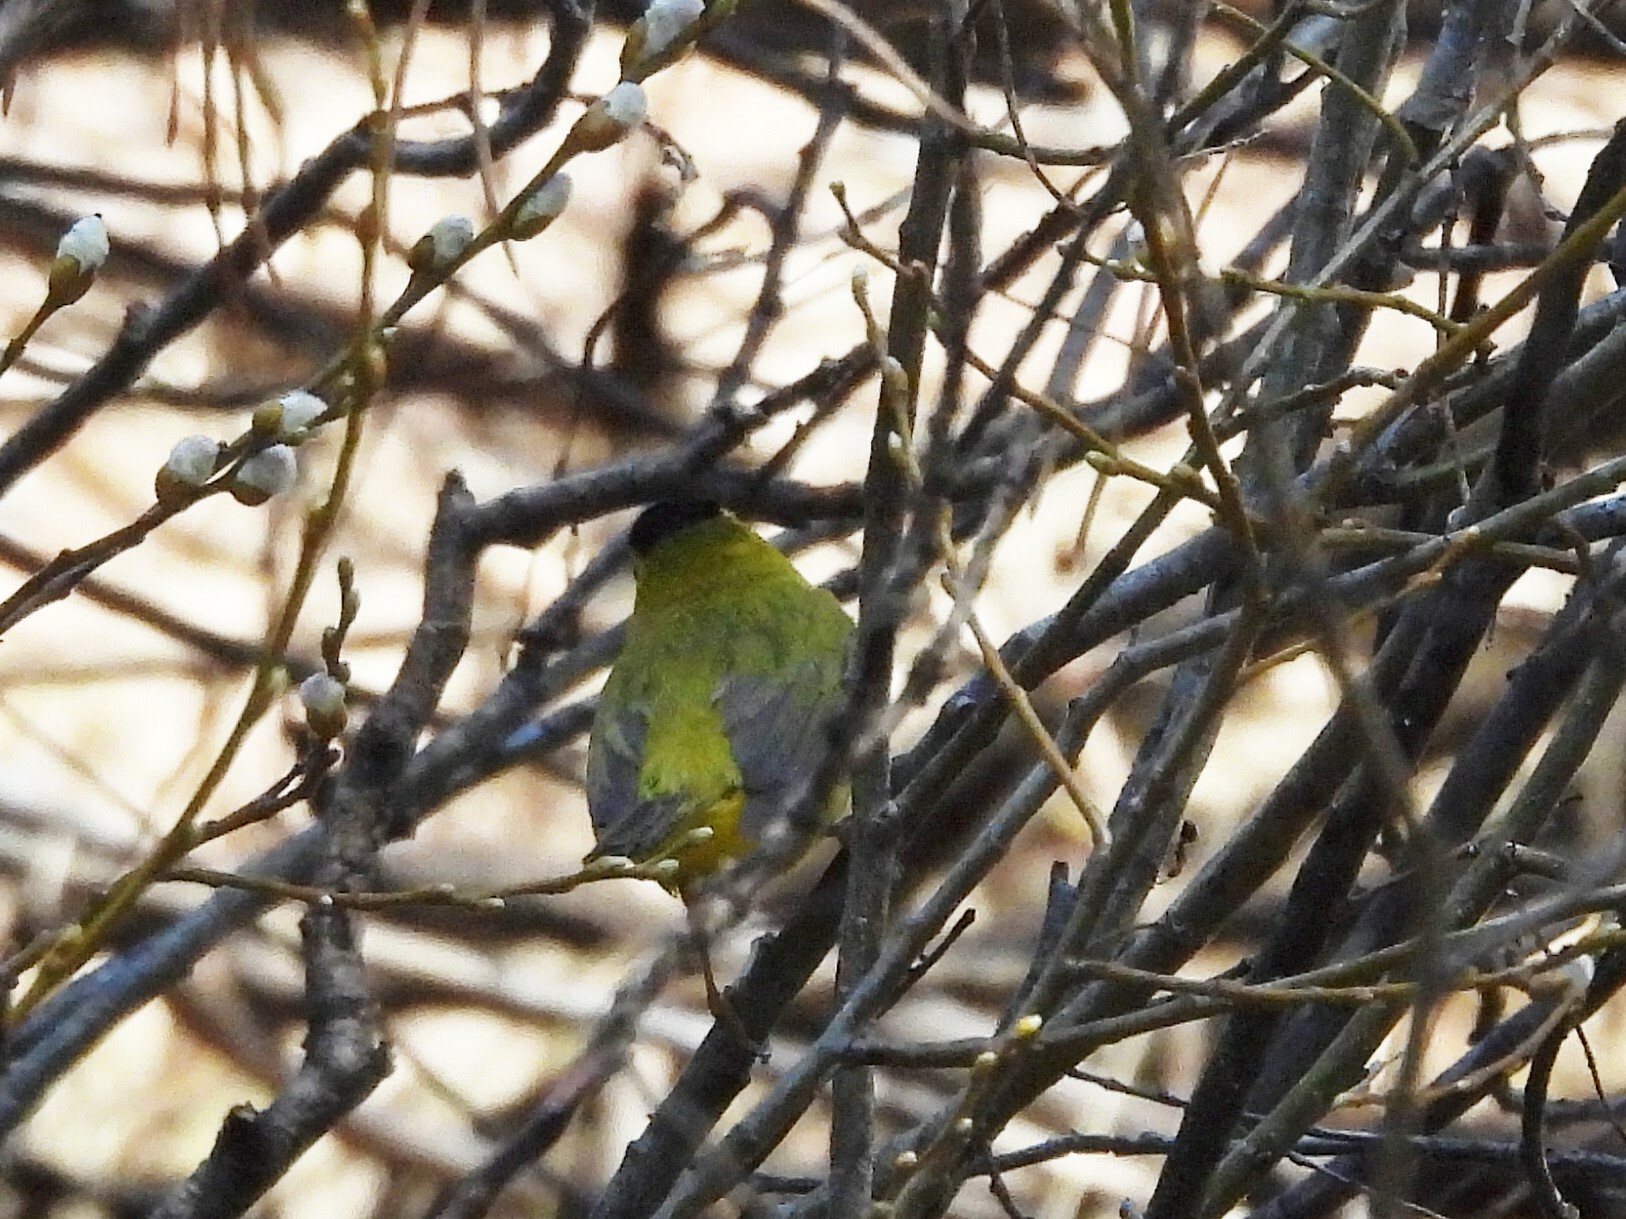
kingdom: Animalia
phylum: Chordata
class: Aves
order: Passeriformes
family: Parulidae
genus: Cardellina
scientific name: Cardellina pusilla
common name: Wilson's warbler
